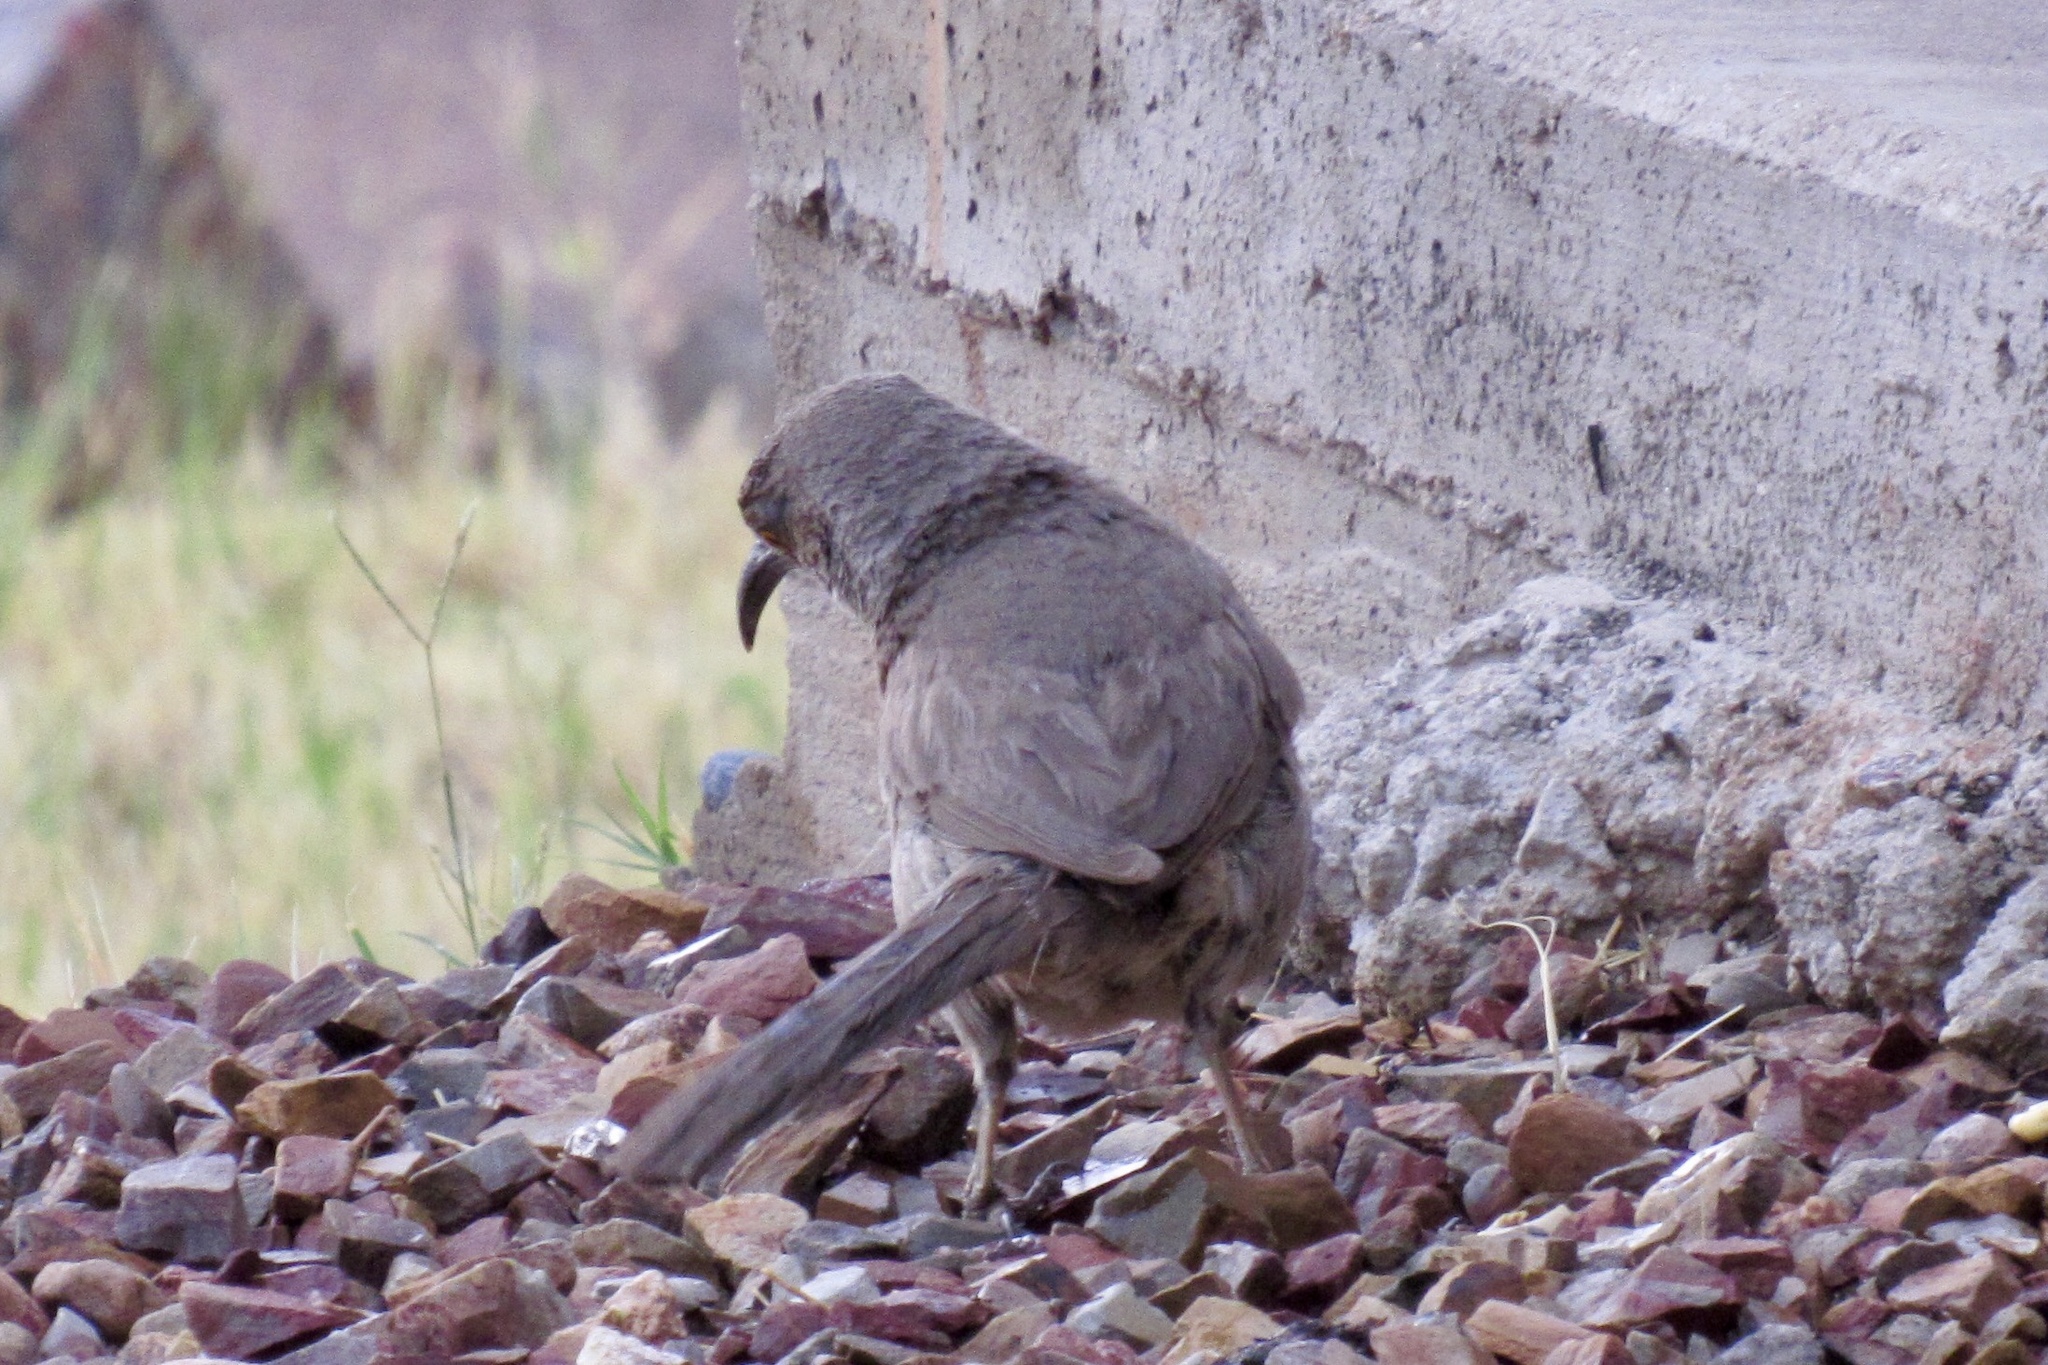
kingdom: Animalia
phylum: Chordata
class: Aves
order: Passeriformes
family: Mimidae
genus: Toxostoma
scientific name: Toxostoma curvirostre
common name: Curve-billed thrasher
